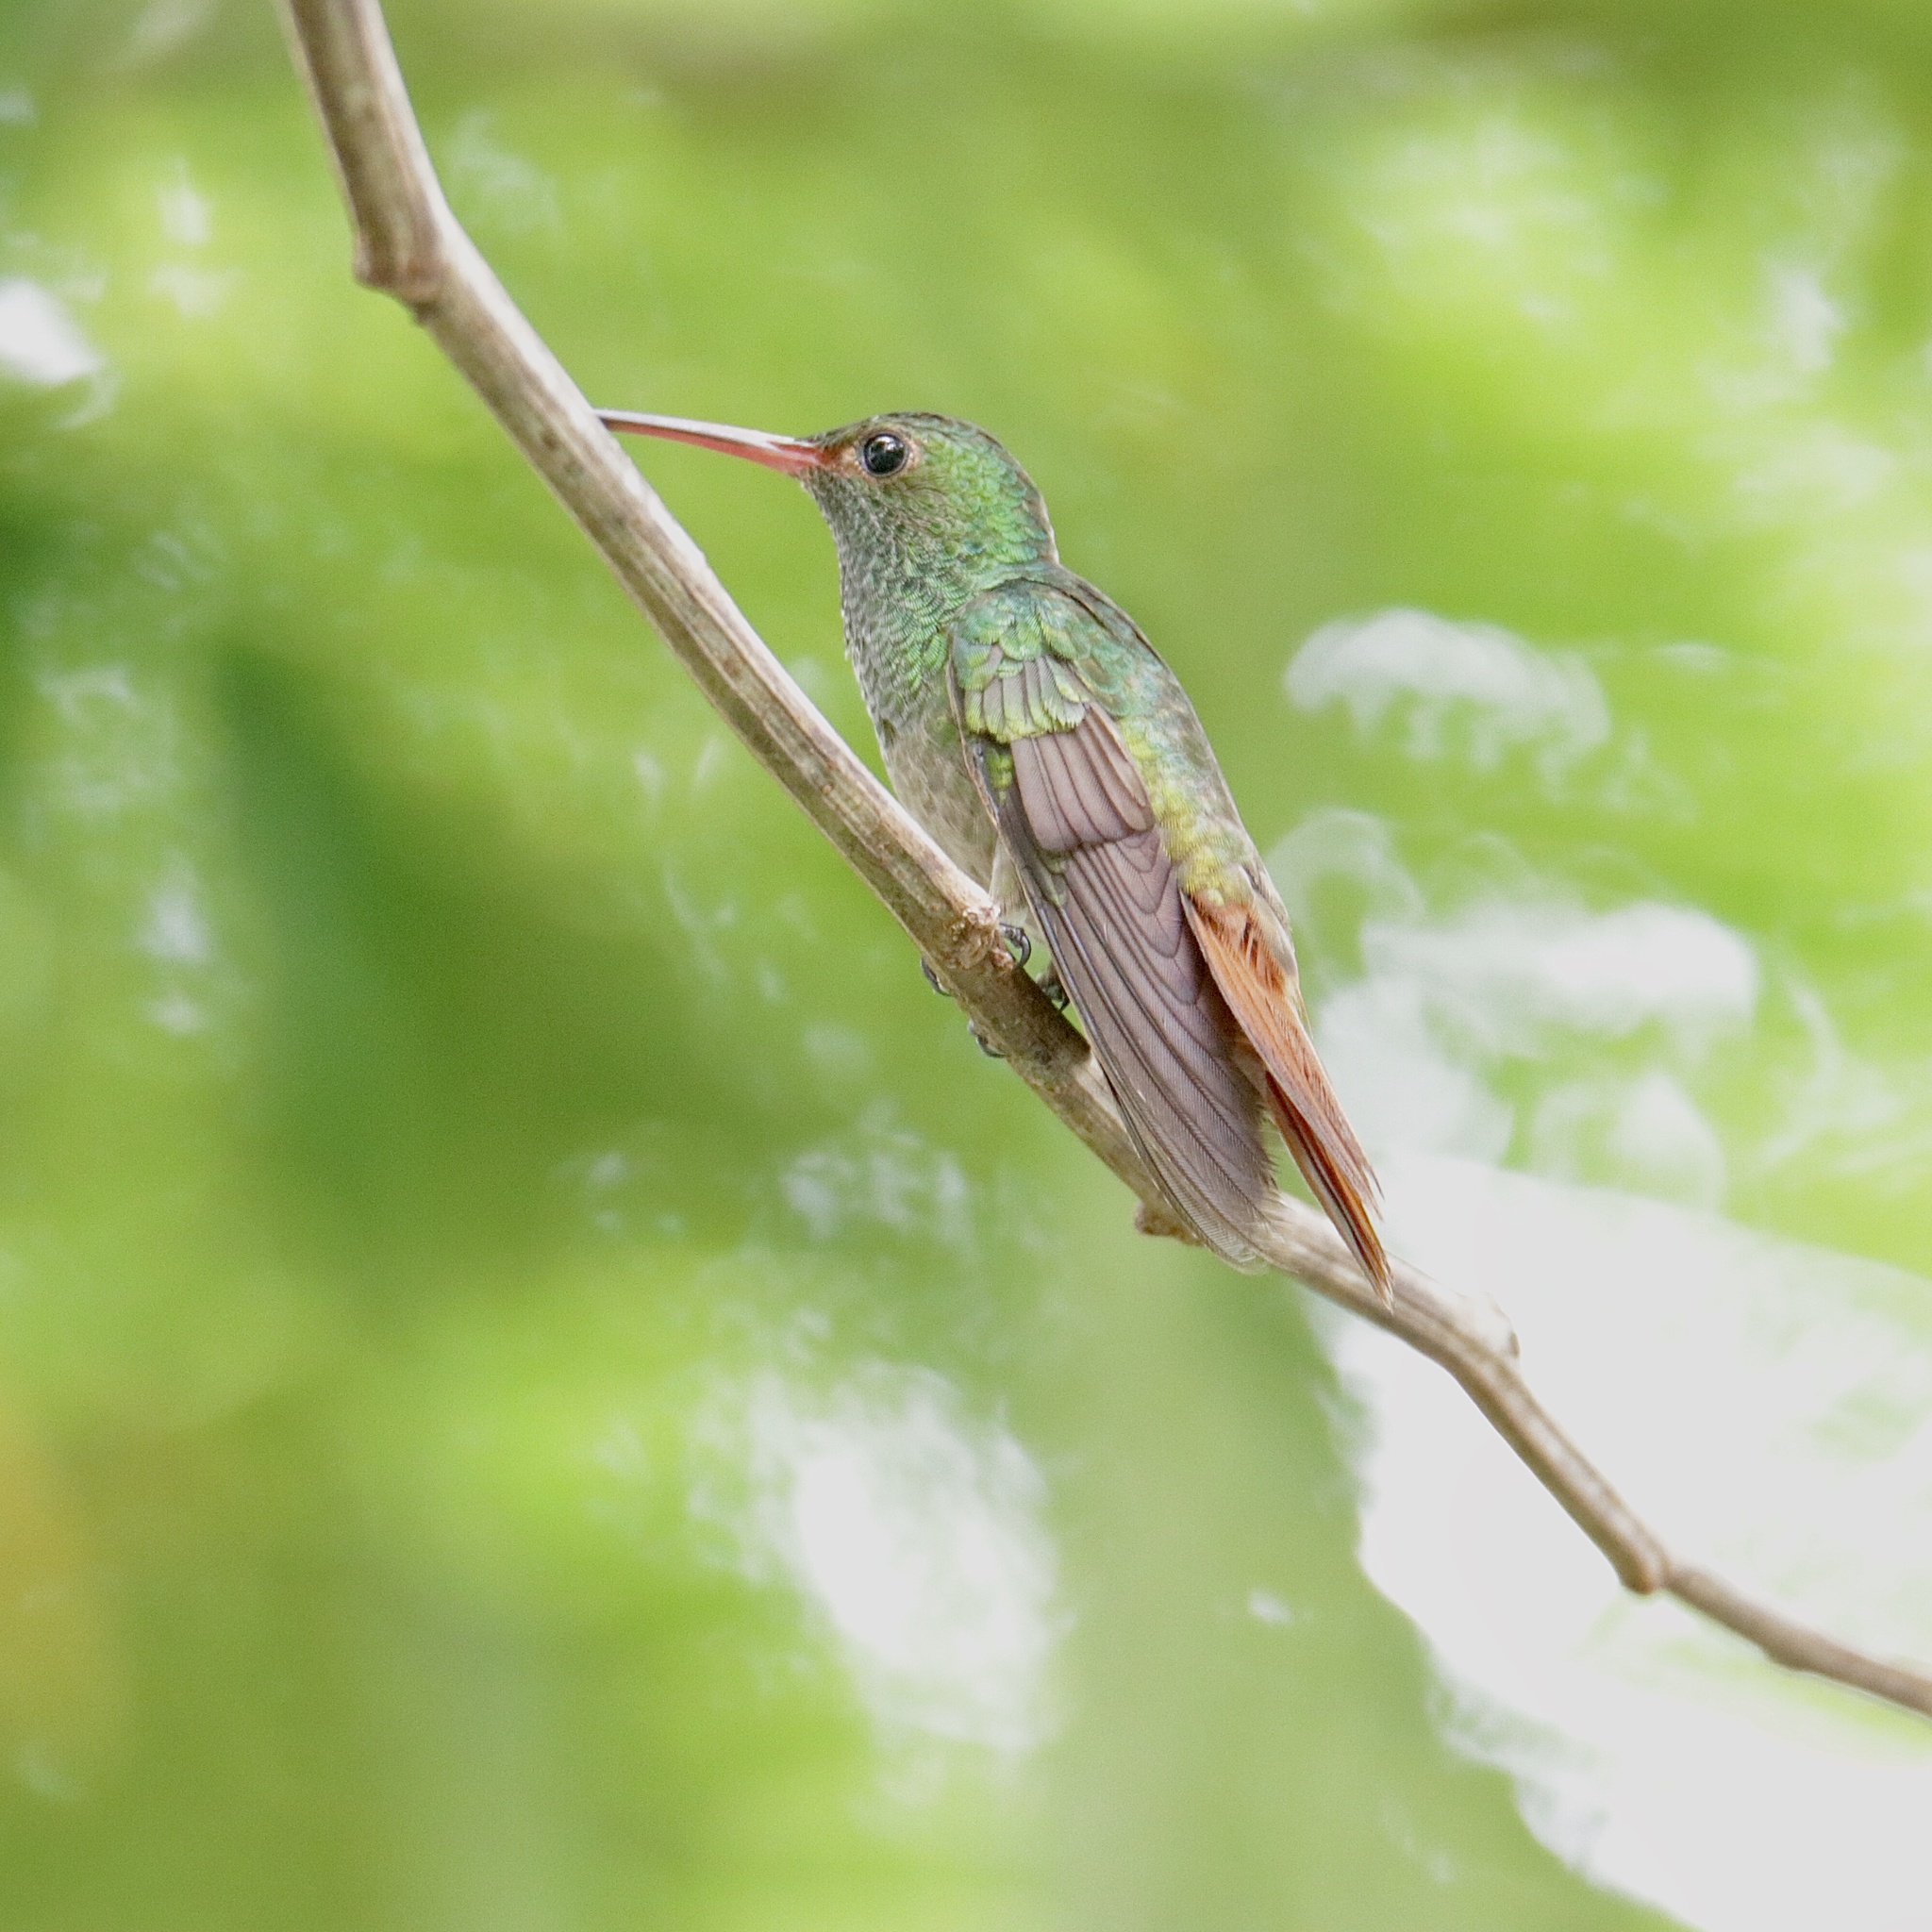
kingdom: Animalia
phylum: Chordata
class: Aves
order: Apodiformes
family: Trochilidae
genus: Amazilia
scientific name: Amazilia tzacatl
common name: Rufous-tailed hummingbird
